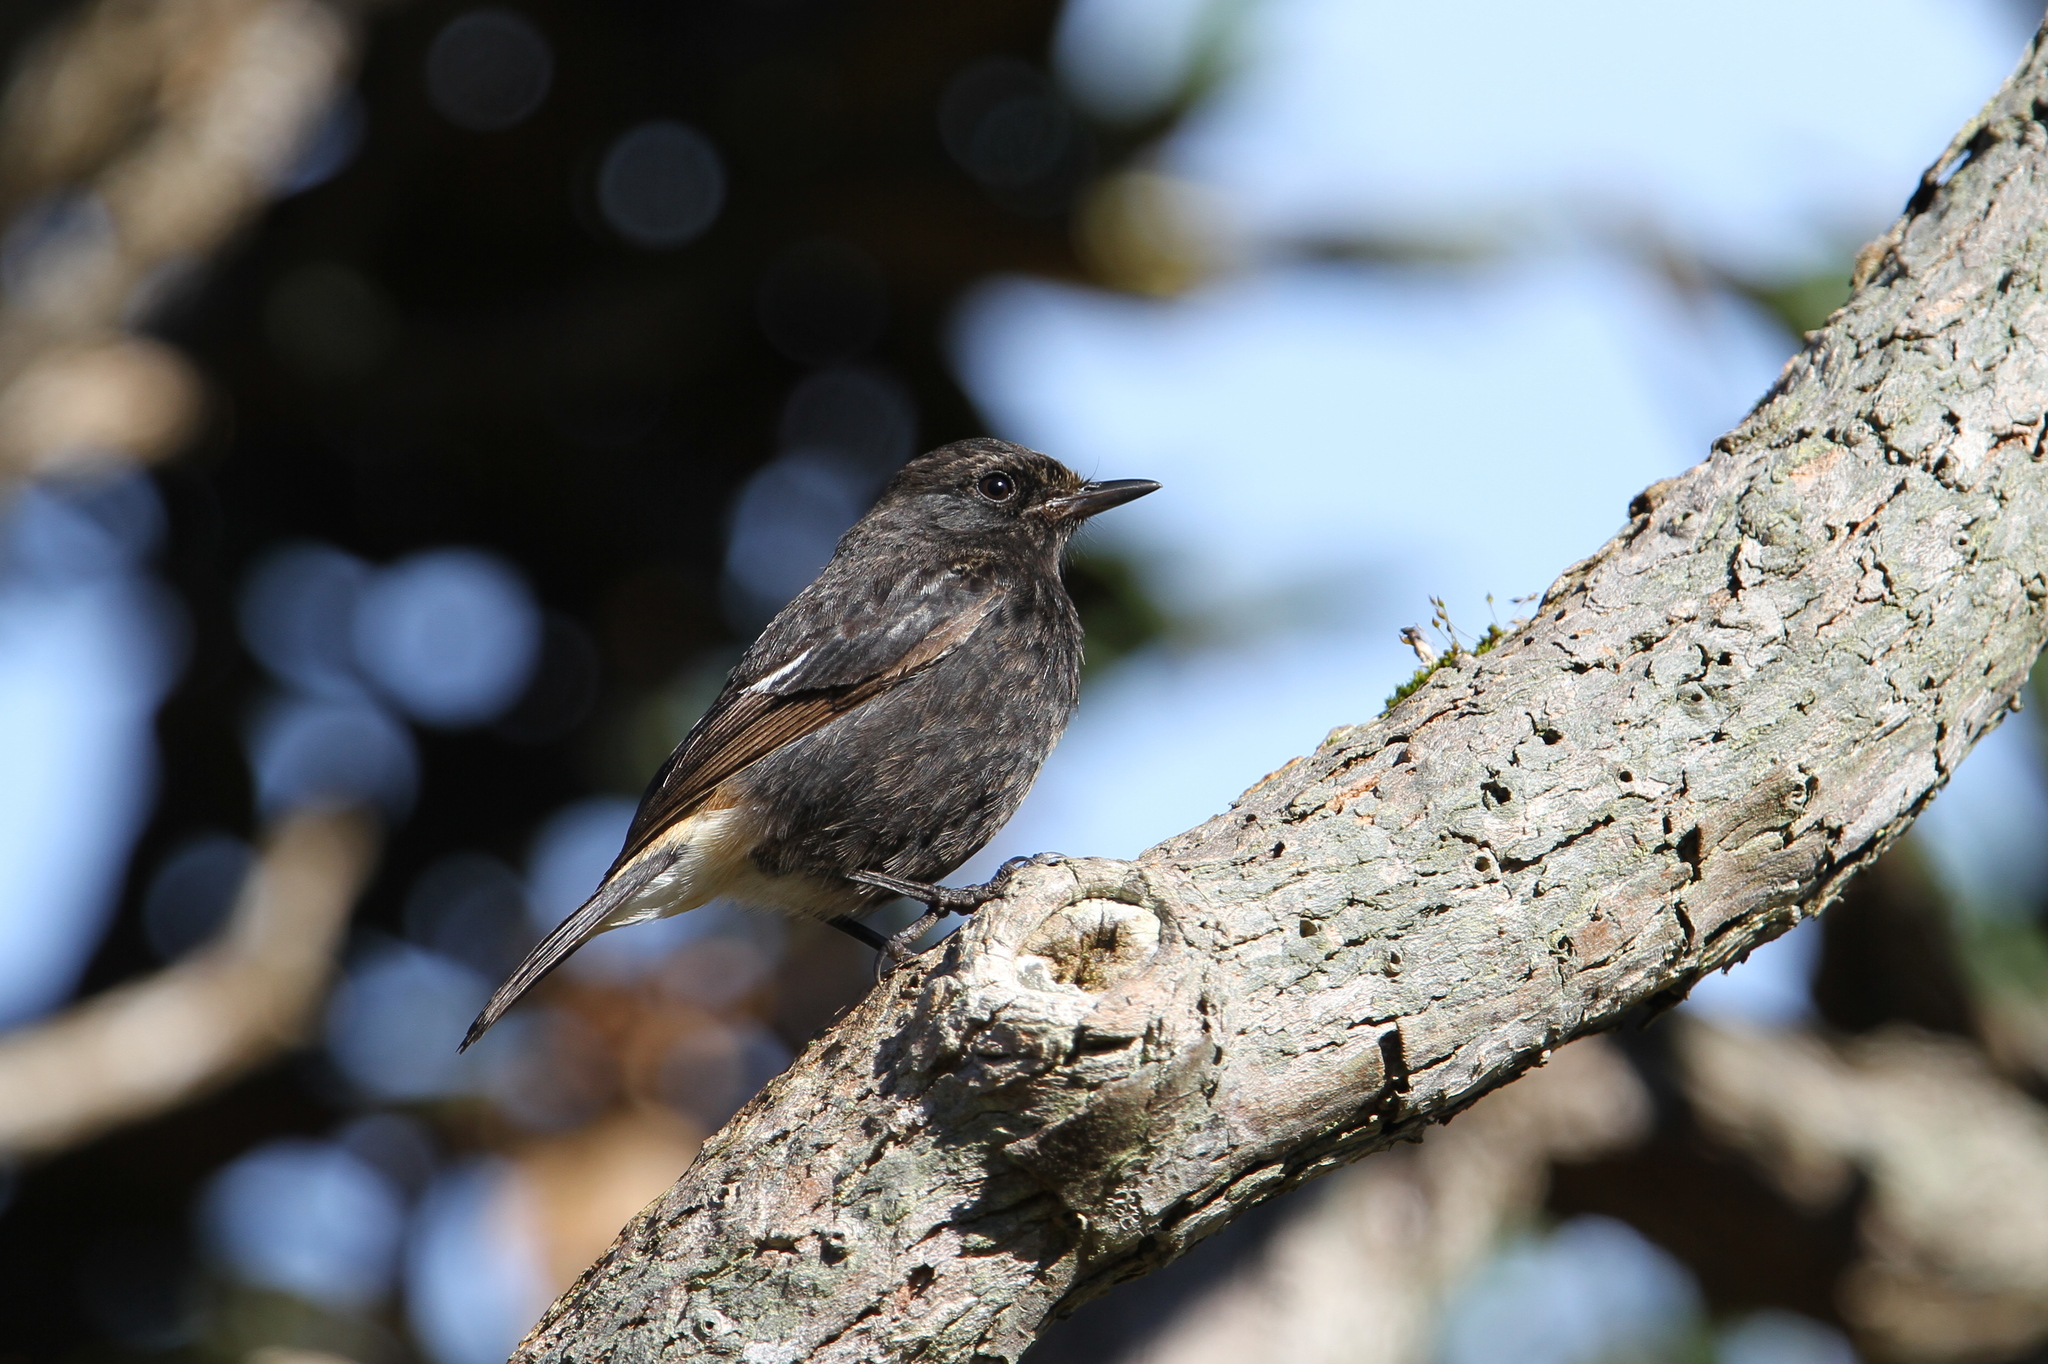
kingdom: Animalia
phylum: Chordata
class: Aves
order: Passeriformes
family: Muscicapidae
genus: Saxicola
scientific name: Saxicola caprata
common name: Pied bush chat
